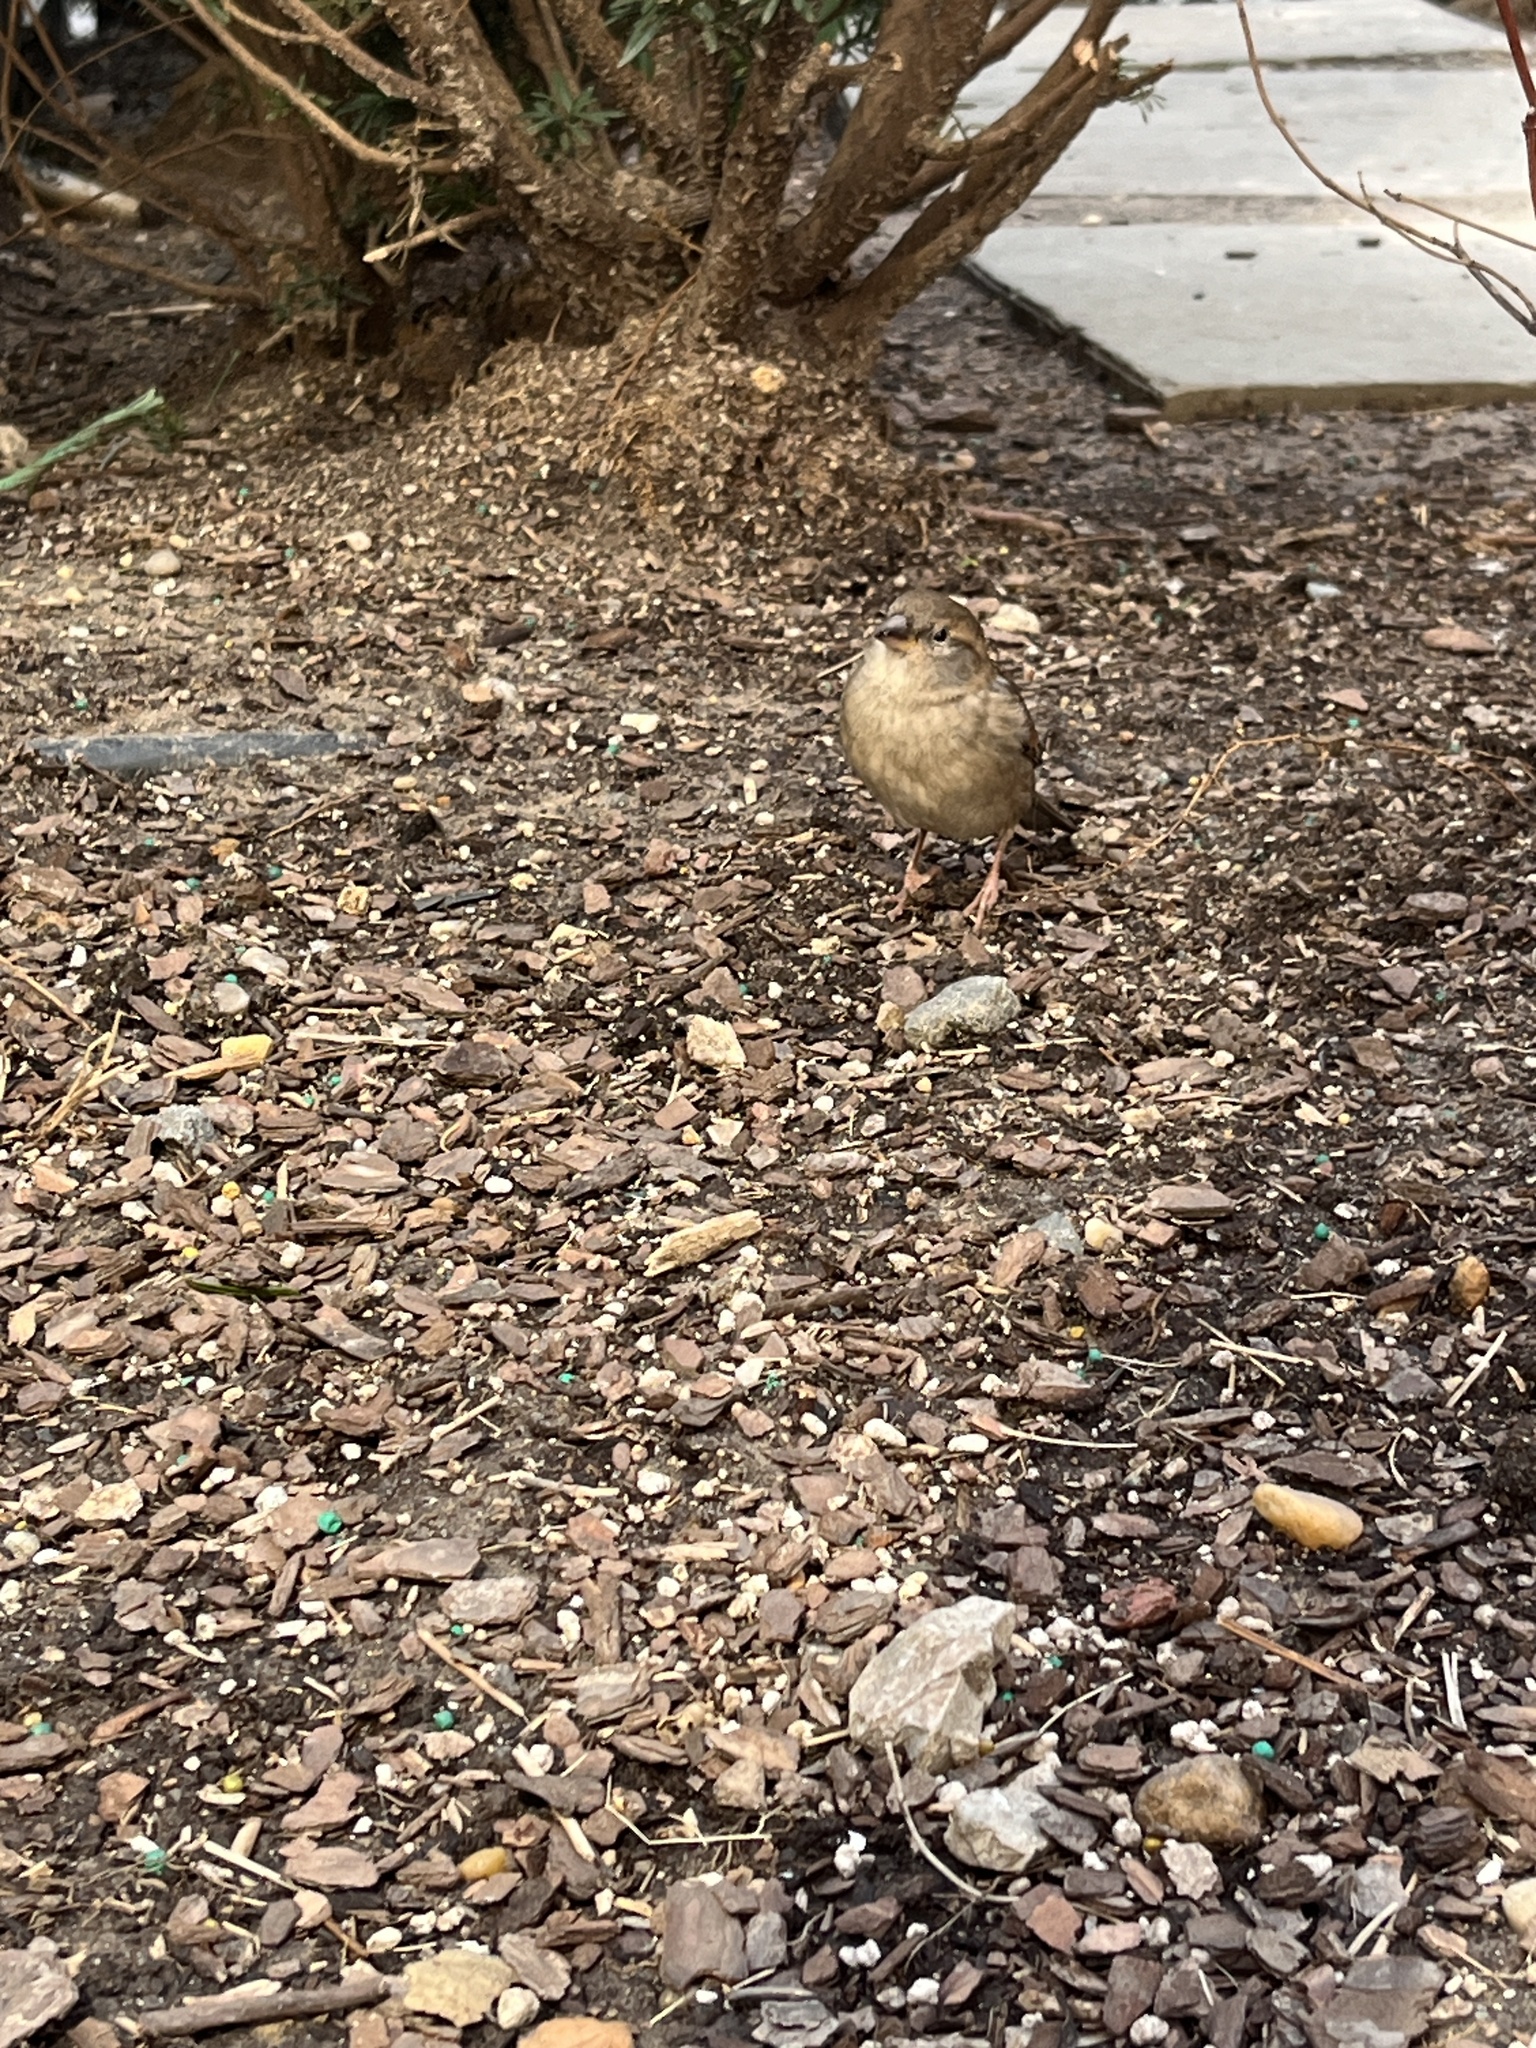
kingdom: Animalia
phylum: Chordata
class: Aves
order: Passeriformes
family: Passeridae
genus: Passer
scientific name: Passer domesticus
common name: House sparrow
